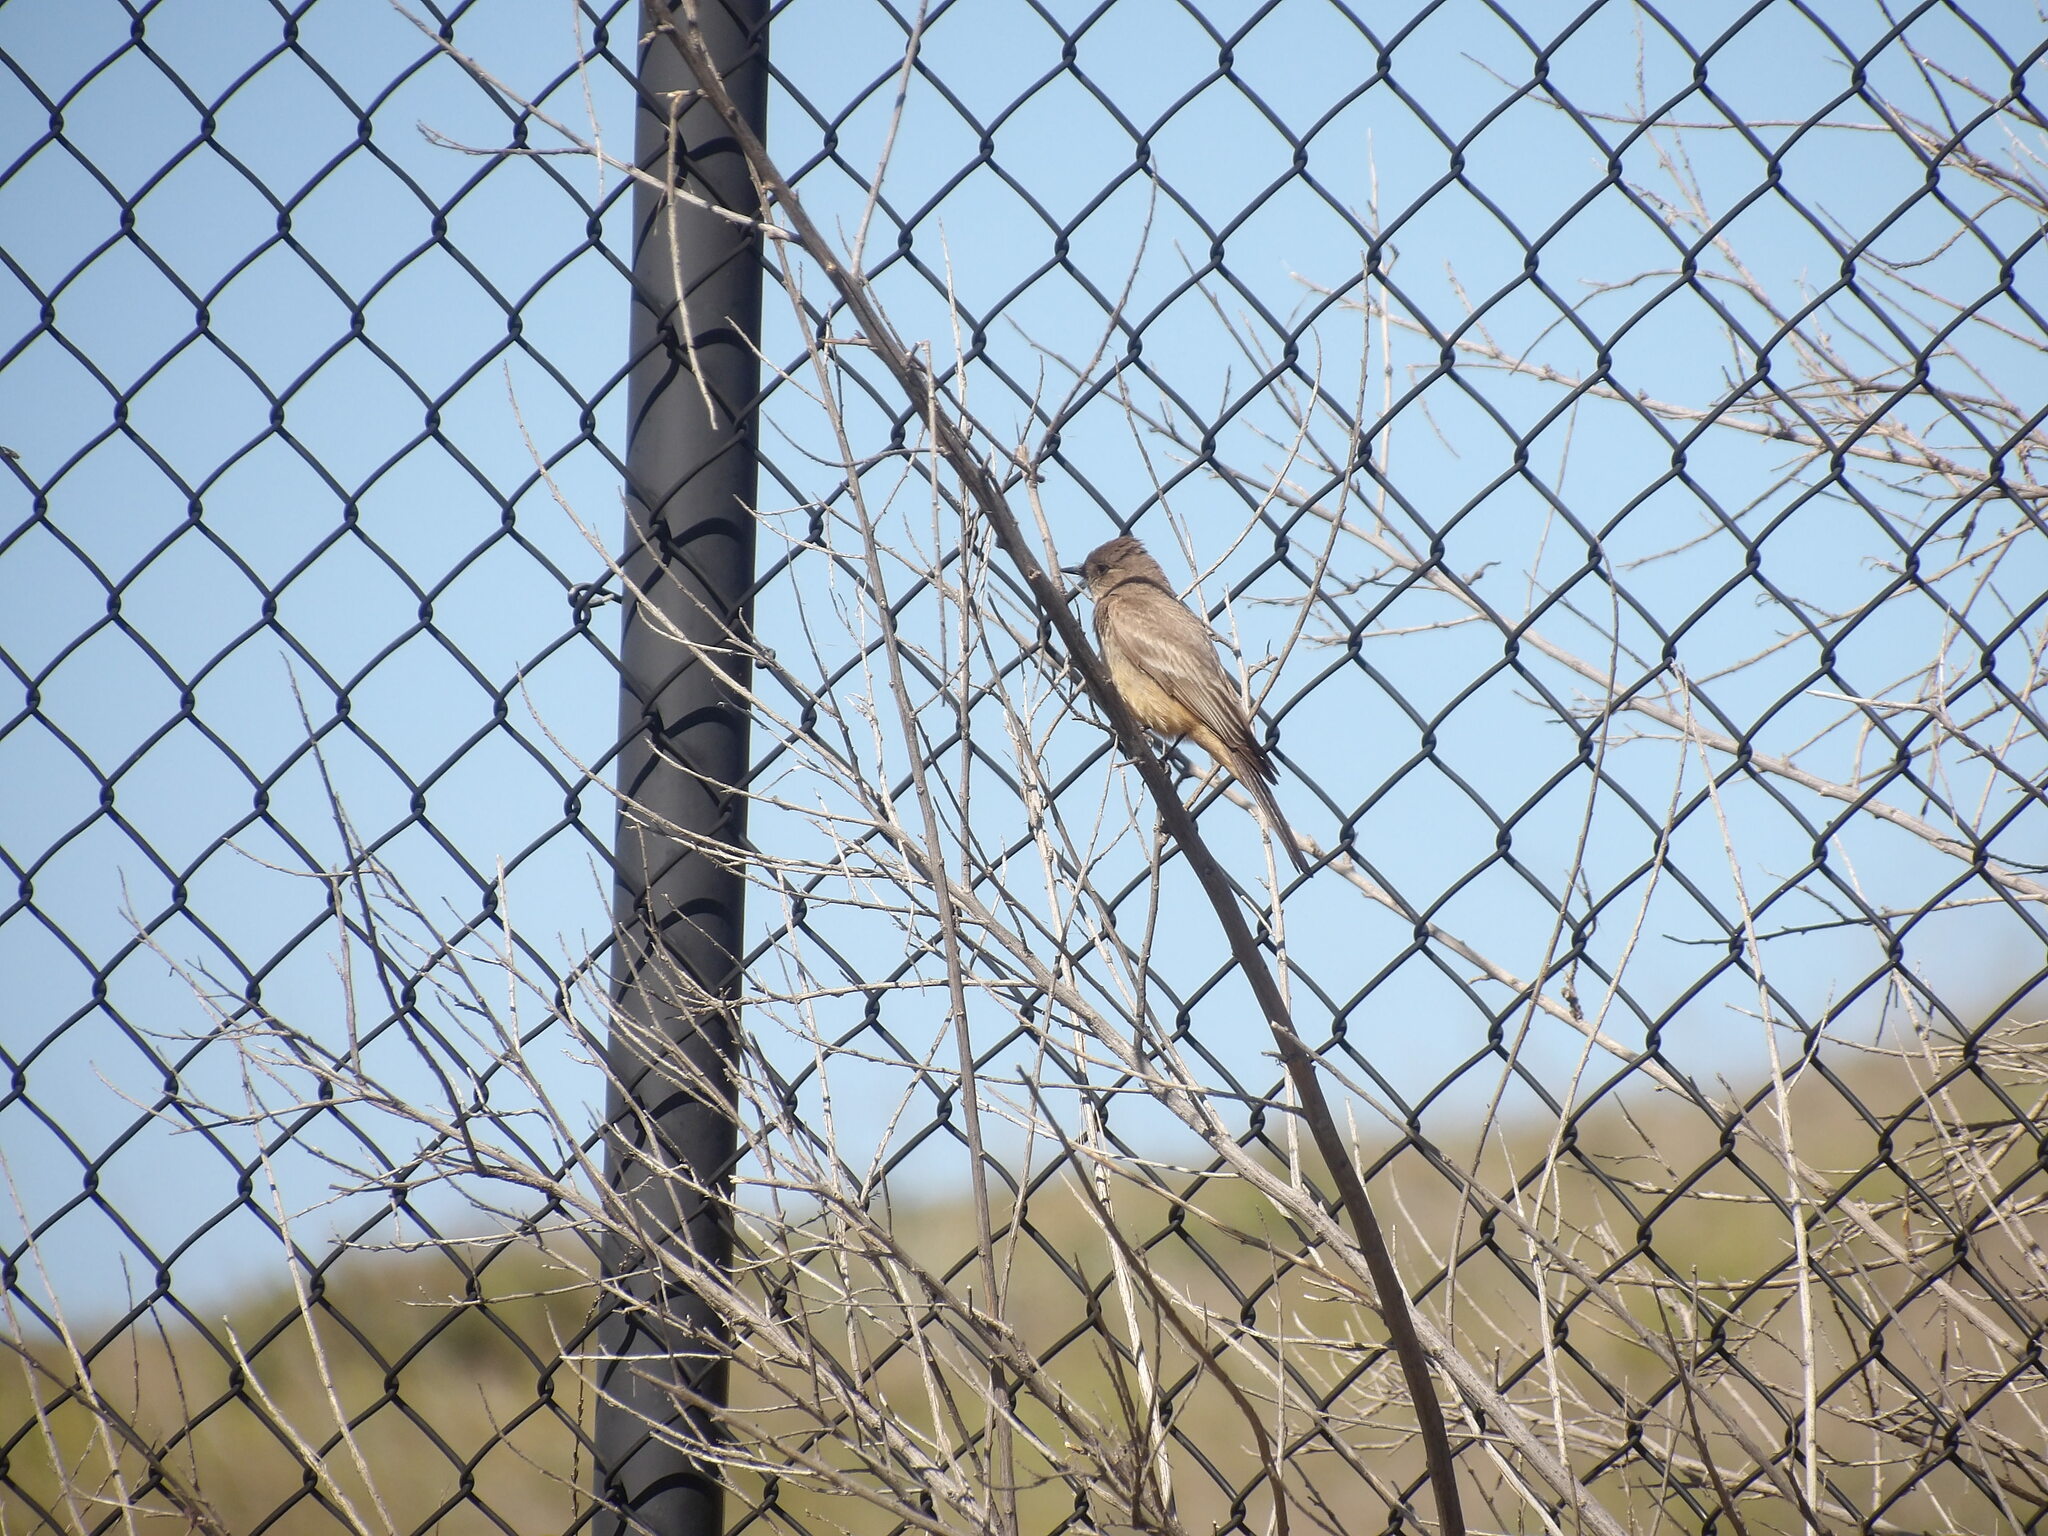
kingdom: Animalia
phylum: Chordata
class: Aves
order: Passeriformes
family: Tyrannidae
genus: Sayornis
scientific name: Sayornis saya
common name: Say's phoebe
